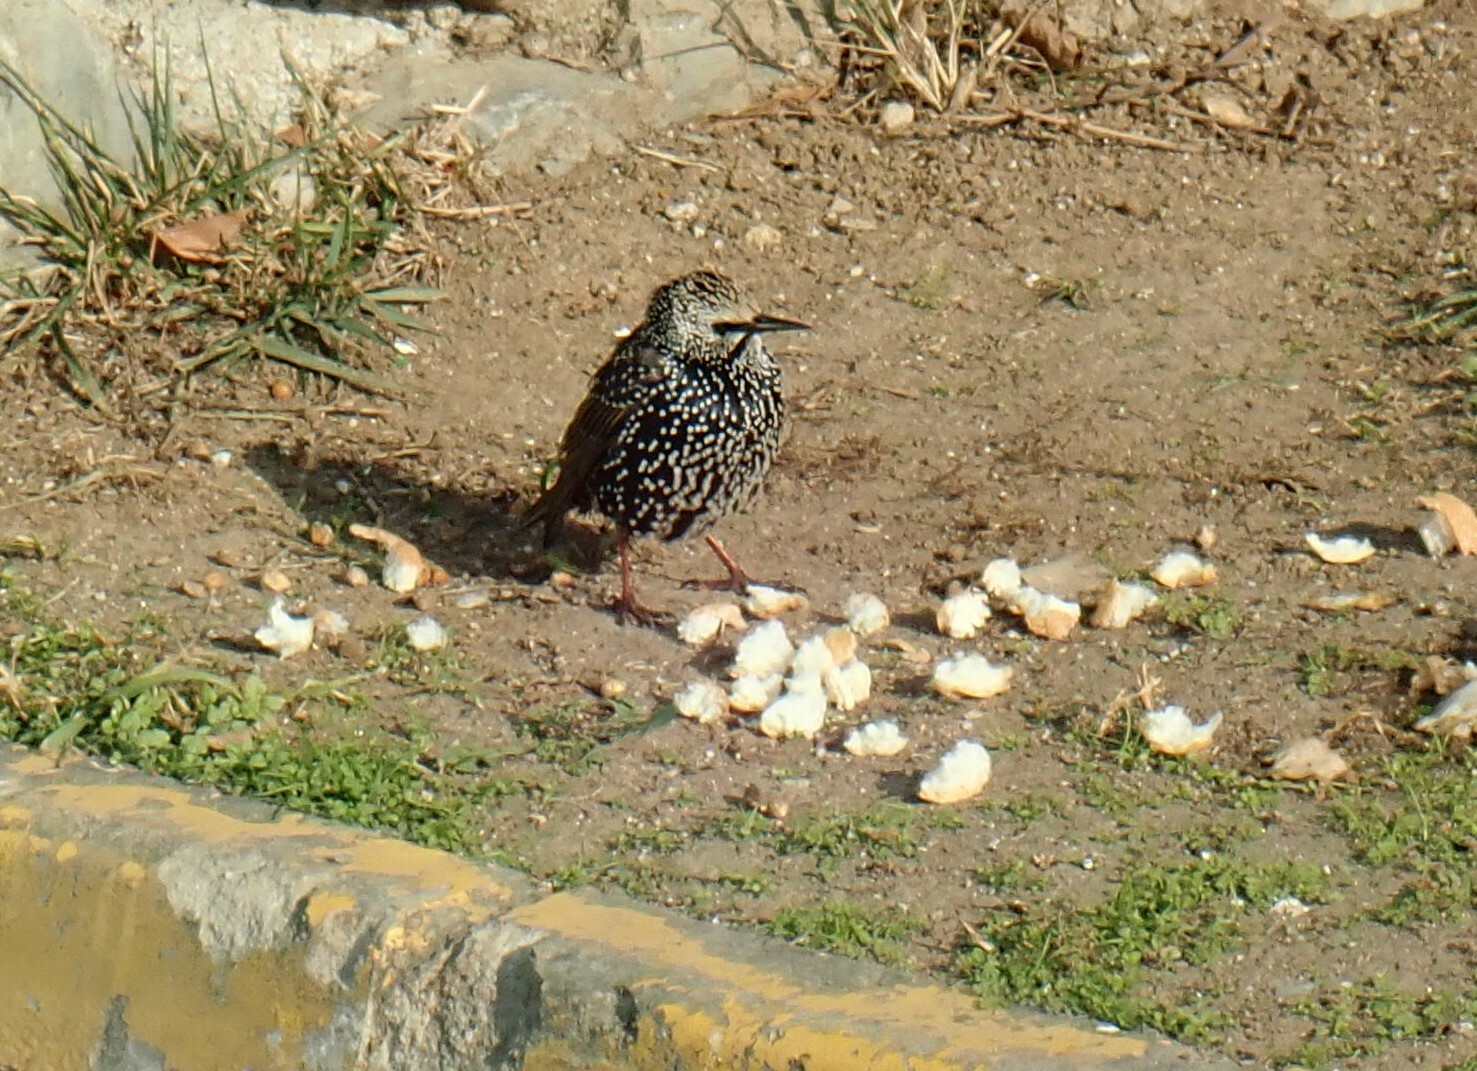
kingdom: Animalia
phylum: Chordata
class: Aves
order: Passeriformes
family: Sturnidae
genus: Sturnus
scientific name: Sturnus vulgaris
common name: Common starling
